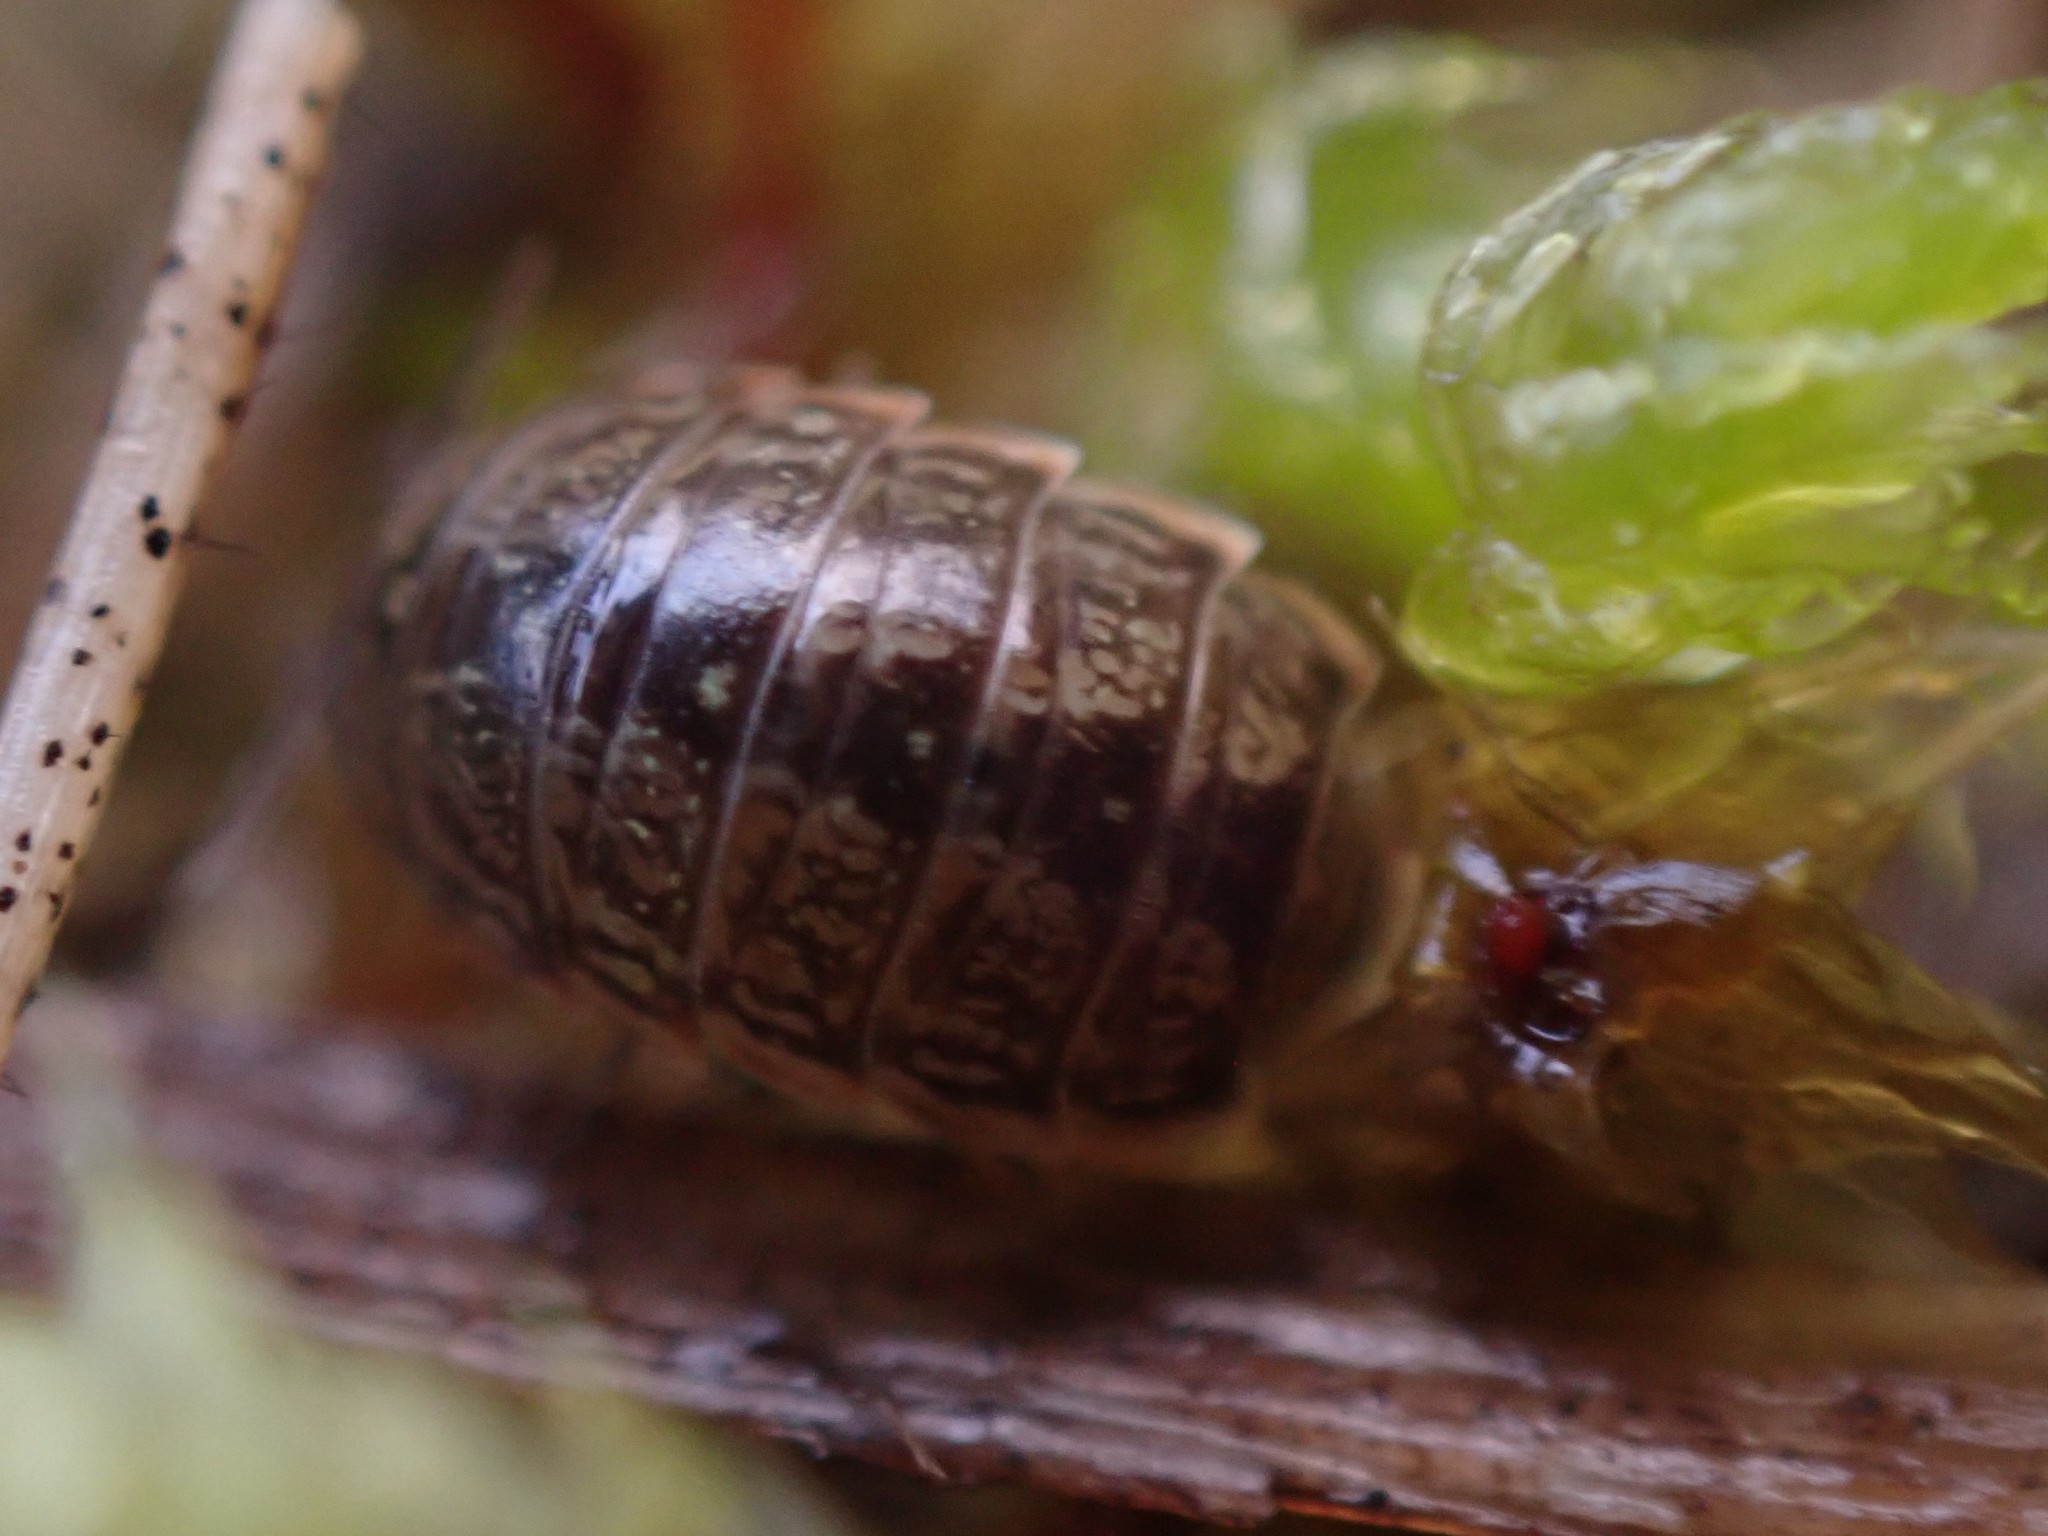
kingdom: Animalia
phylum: Arthropoda
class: Malacostraca
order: Isopoda
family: Philosciidae
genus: Philoscia
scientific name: Philoscia muscorum
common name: Common striped woodlouse
